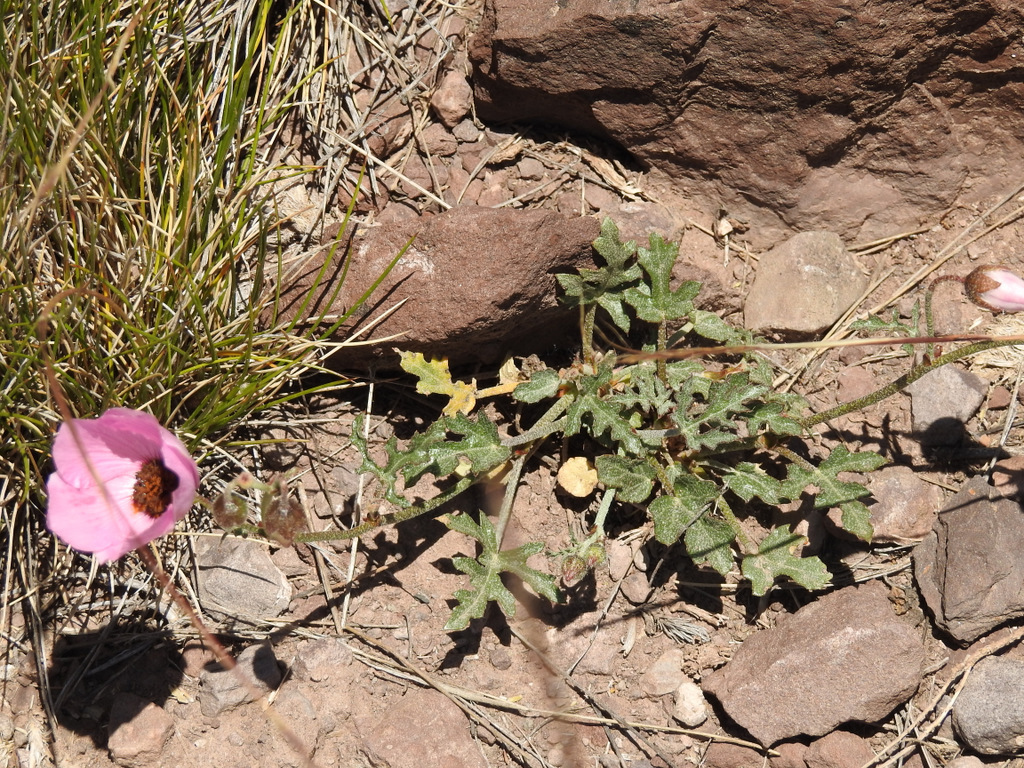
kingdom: Plantae
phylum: Tracheophyta
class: Magnoliopsida
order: Malvales
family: Malvaceae
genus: Lecanophora
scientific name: Lecanophora heterophylla
